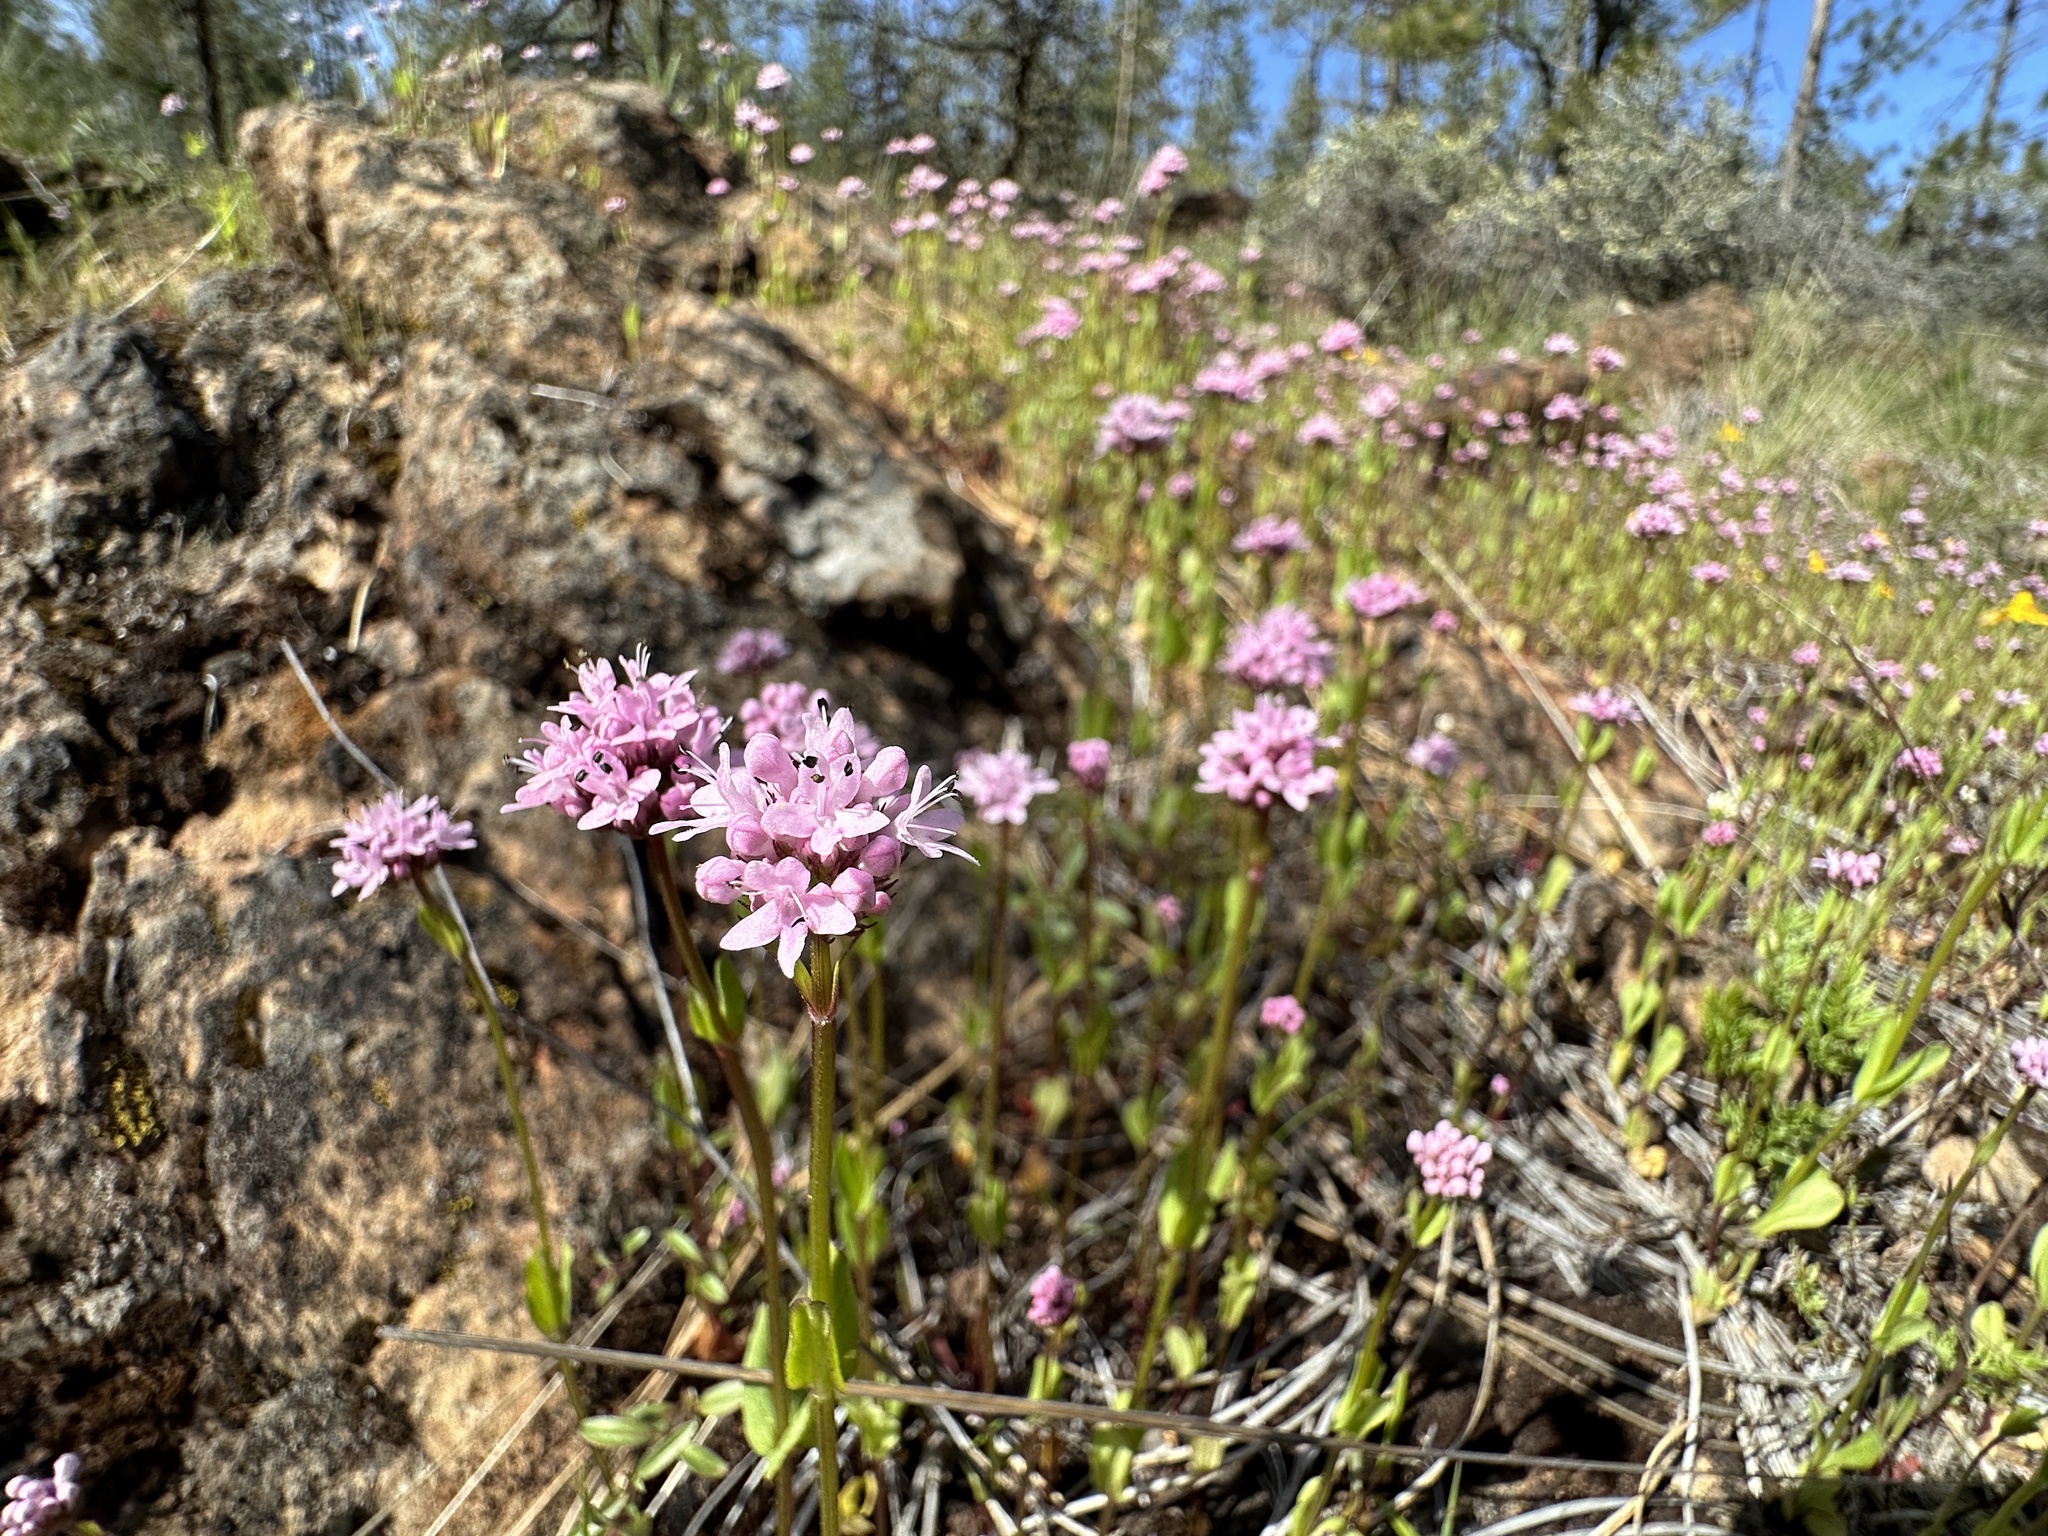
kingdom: Plantae
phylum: Tracheophyta
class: Magnoliopsida
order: Dipsacales
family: Caprifoliaceae
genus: Plectritis
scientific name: Plectritis congesta
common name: Pink plectritis
